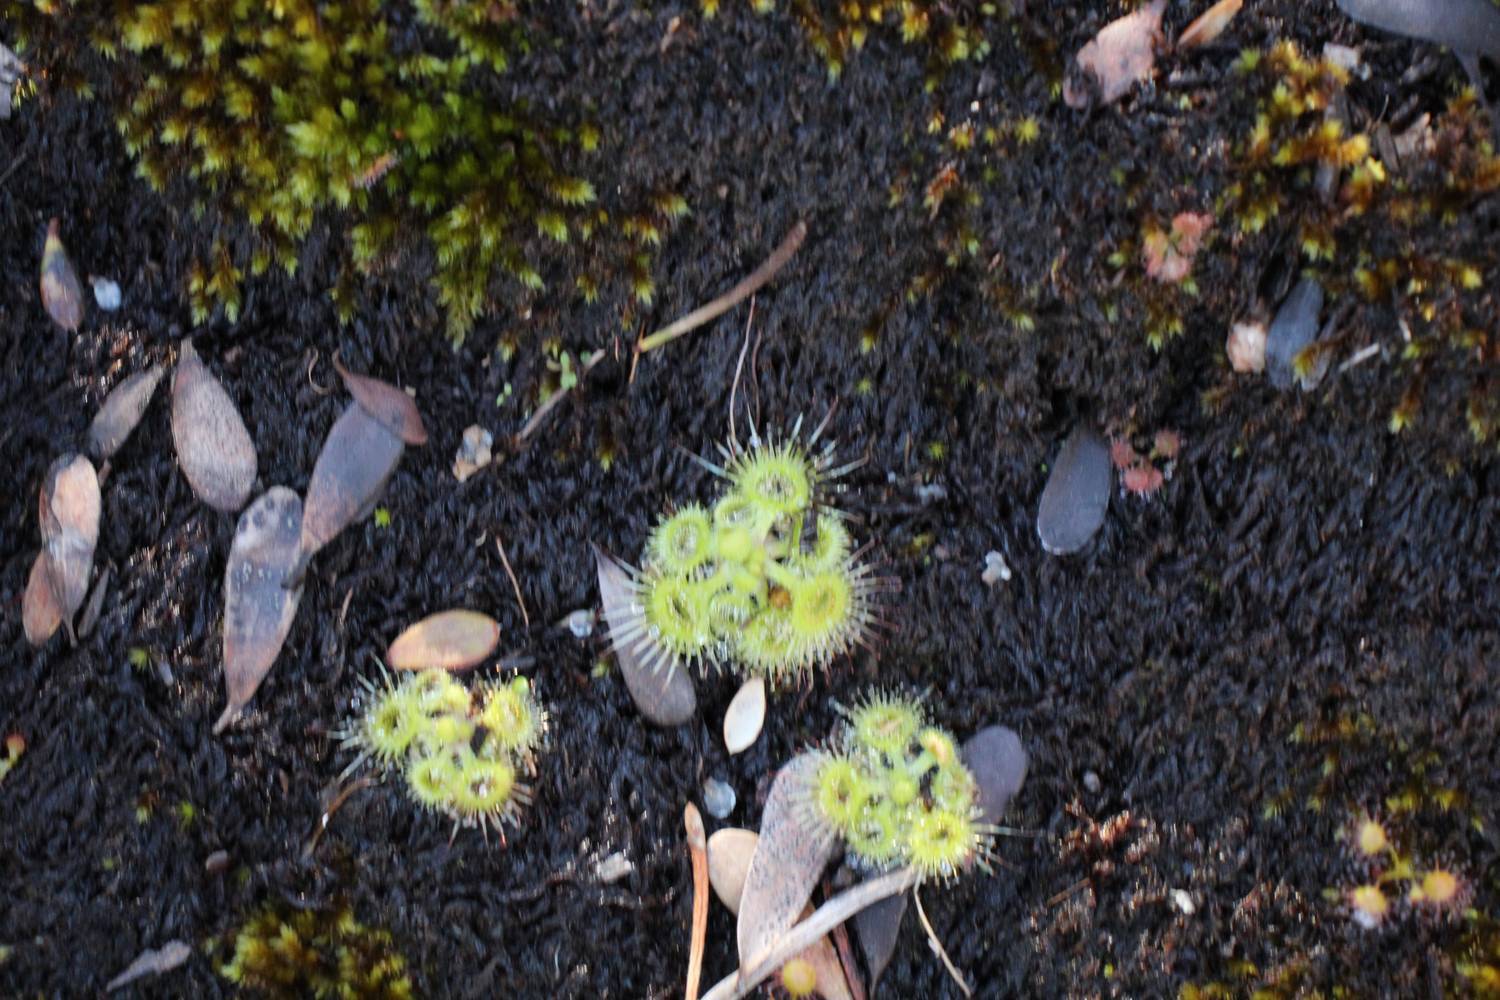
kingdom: Plantae
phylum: Tracheophyta
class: Magnoliopsida
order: Caryophyllales
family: Droseraceae
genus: Drosera
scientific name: Drosera glanduligera
